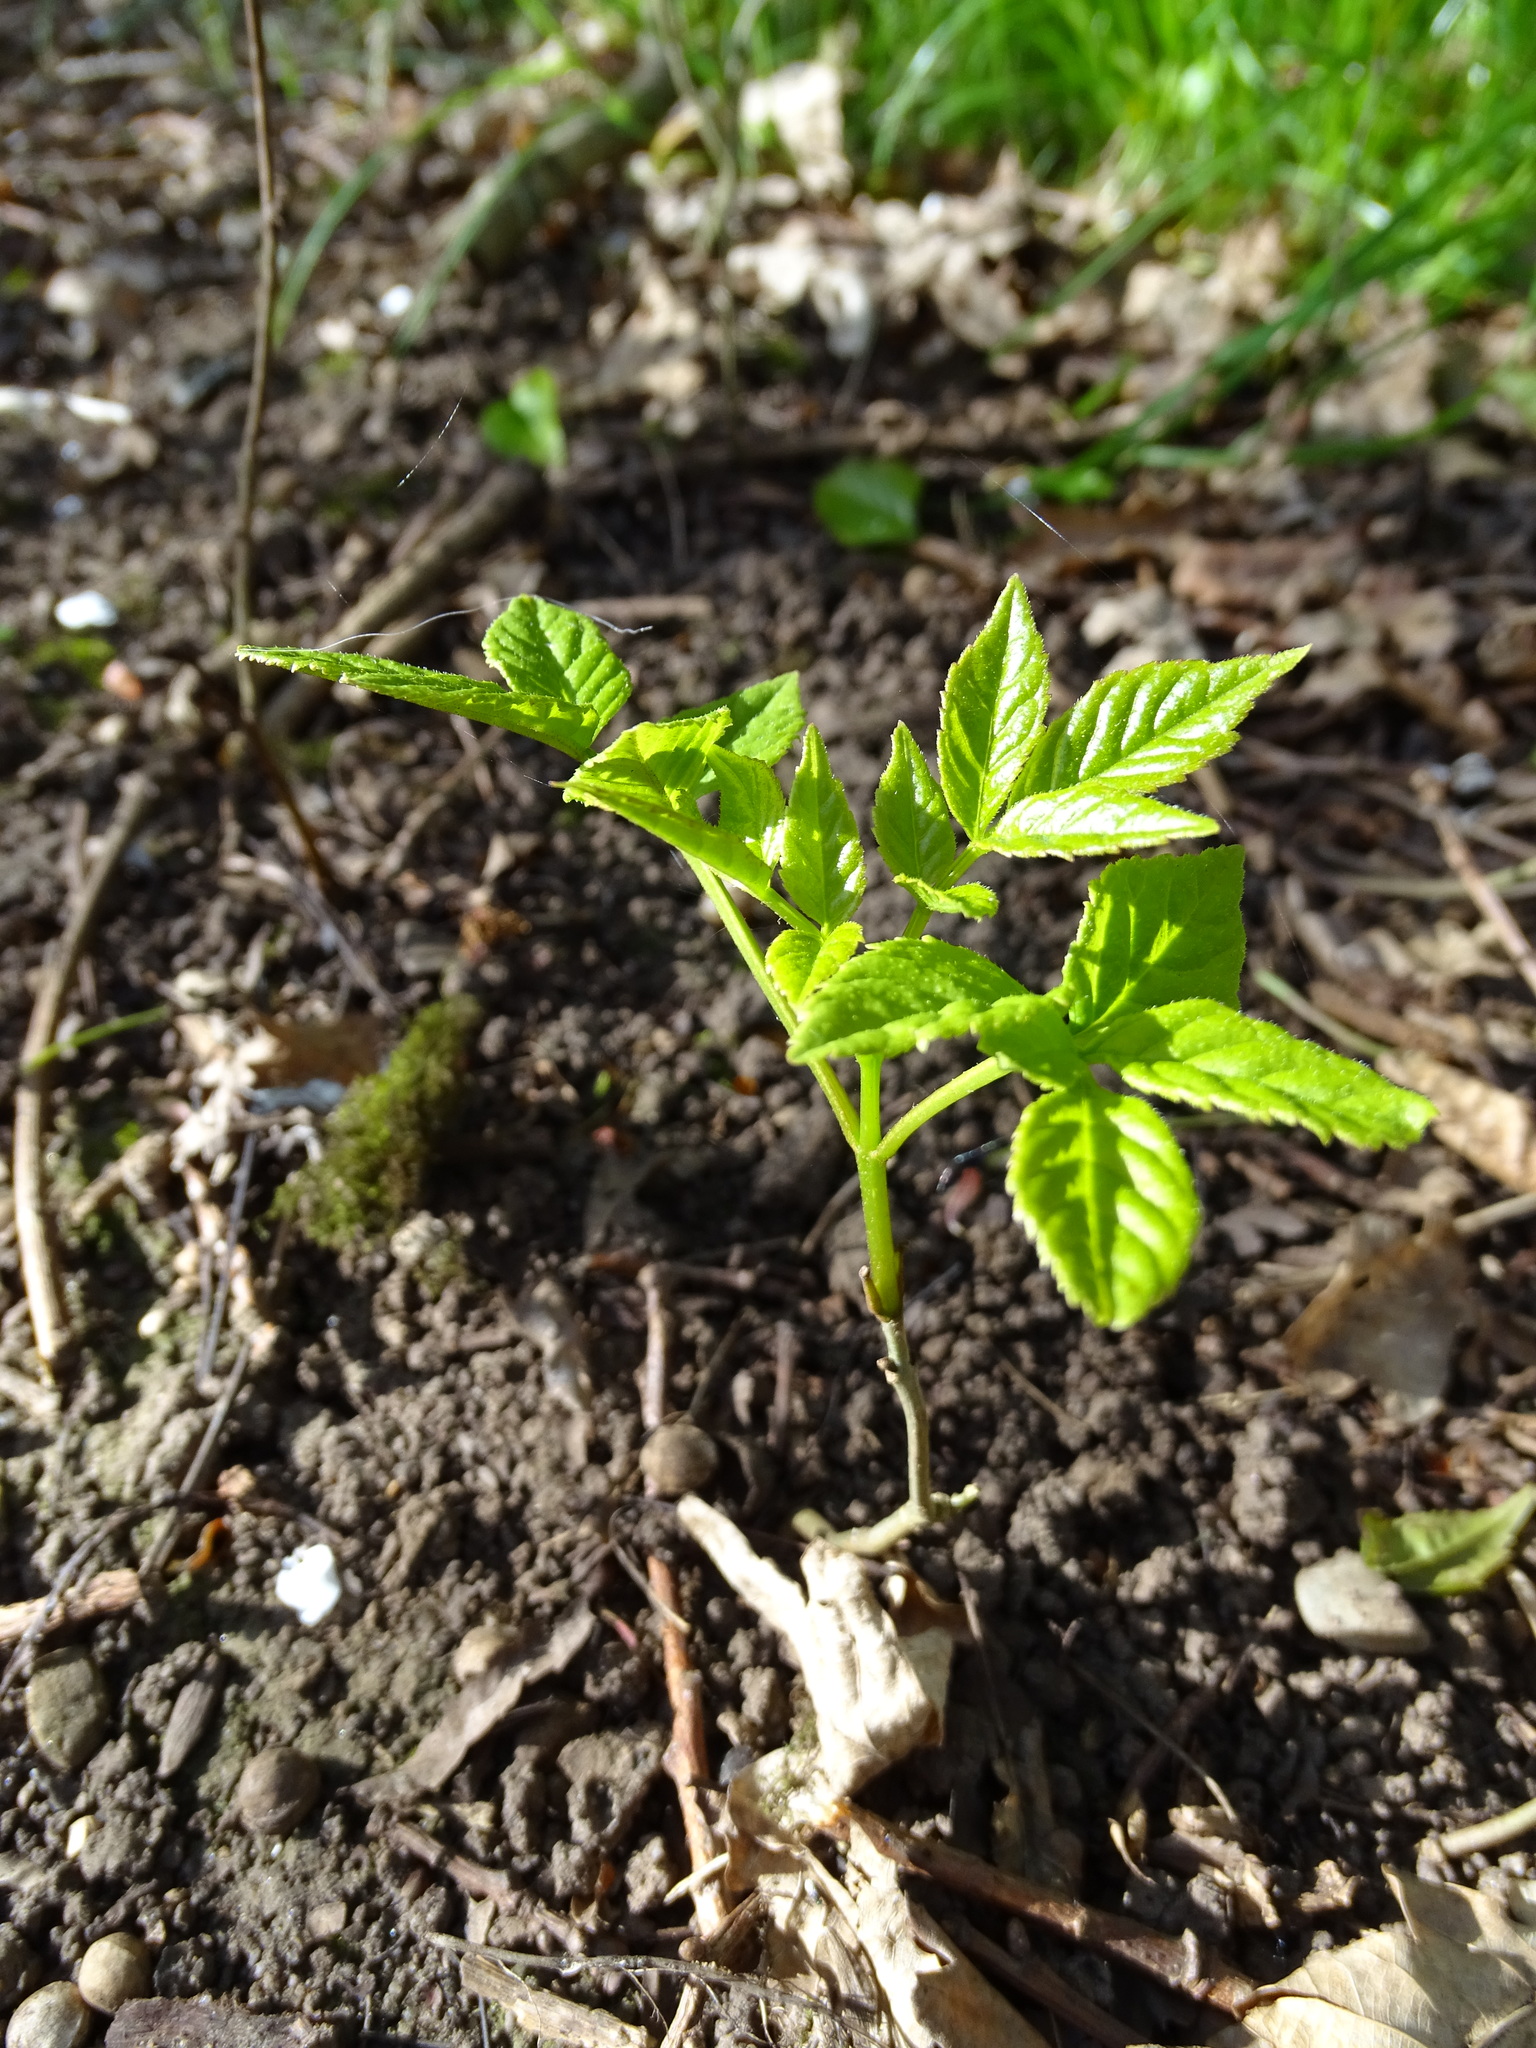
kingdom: Plantae
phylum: Tracheophyta
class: Magnoliopsida
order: Lamiales
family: Oleaceae
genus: Fraxinus
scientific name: Fraxinus excelsior
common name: European ash
